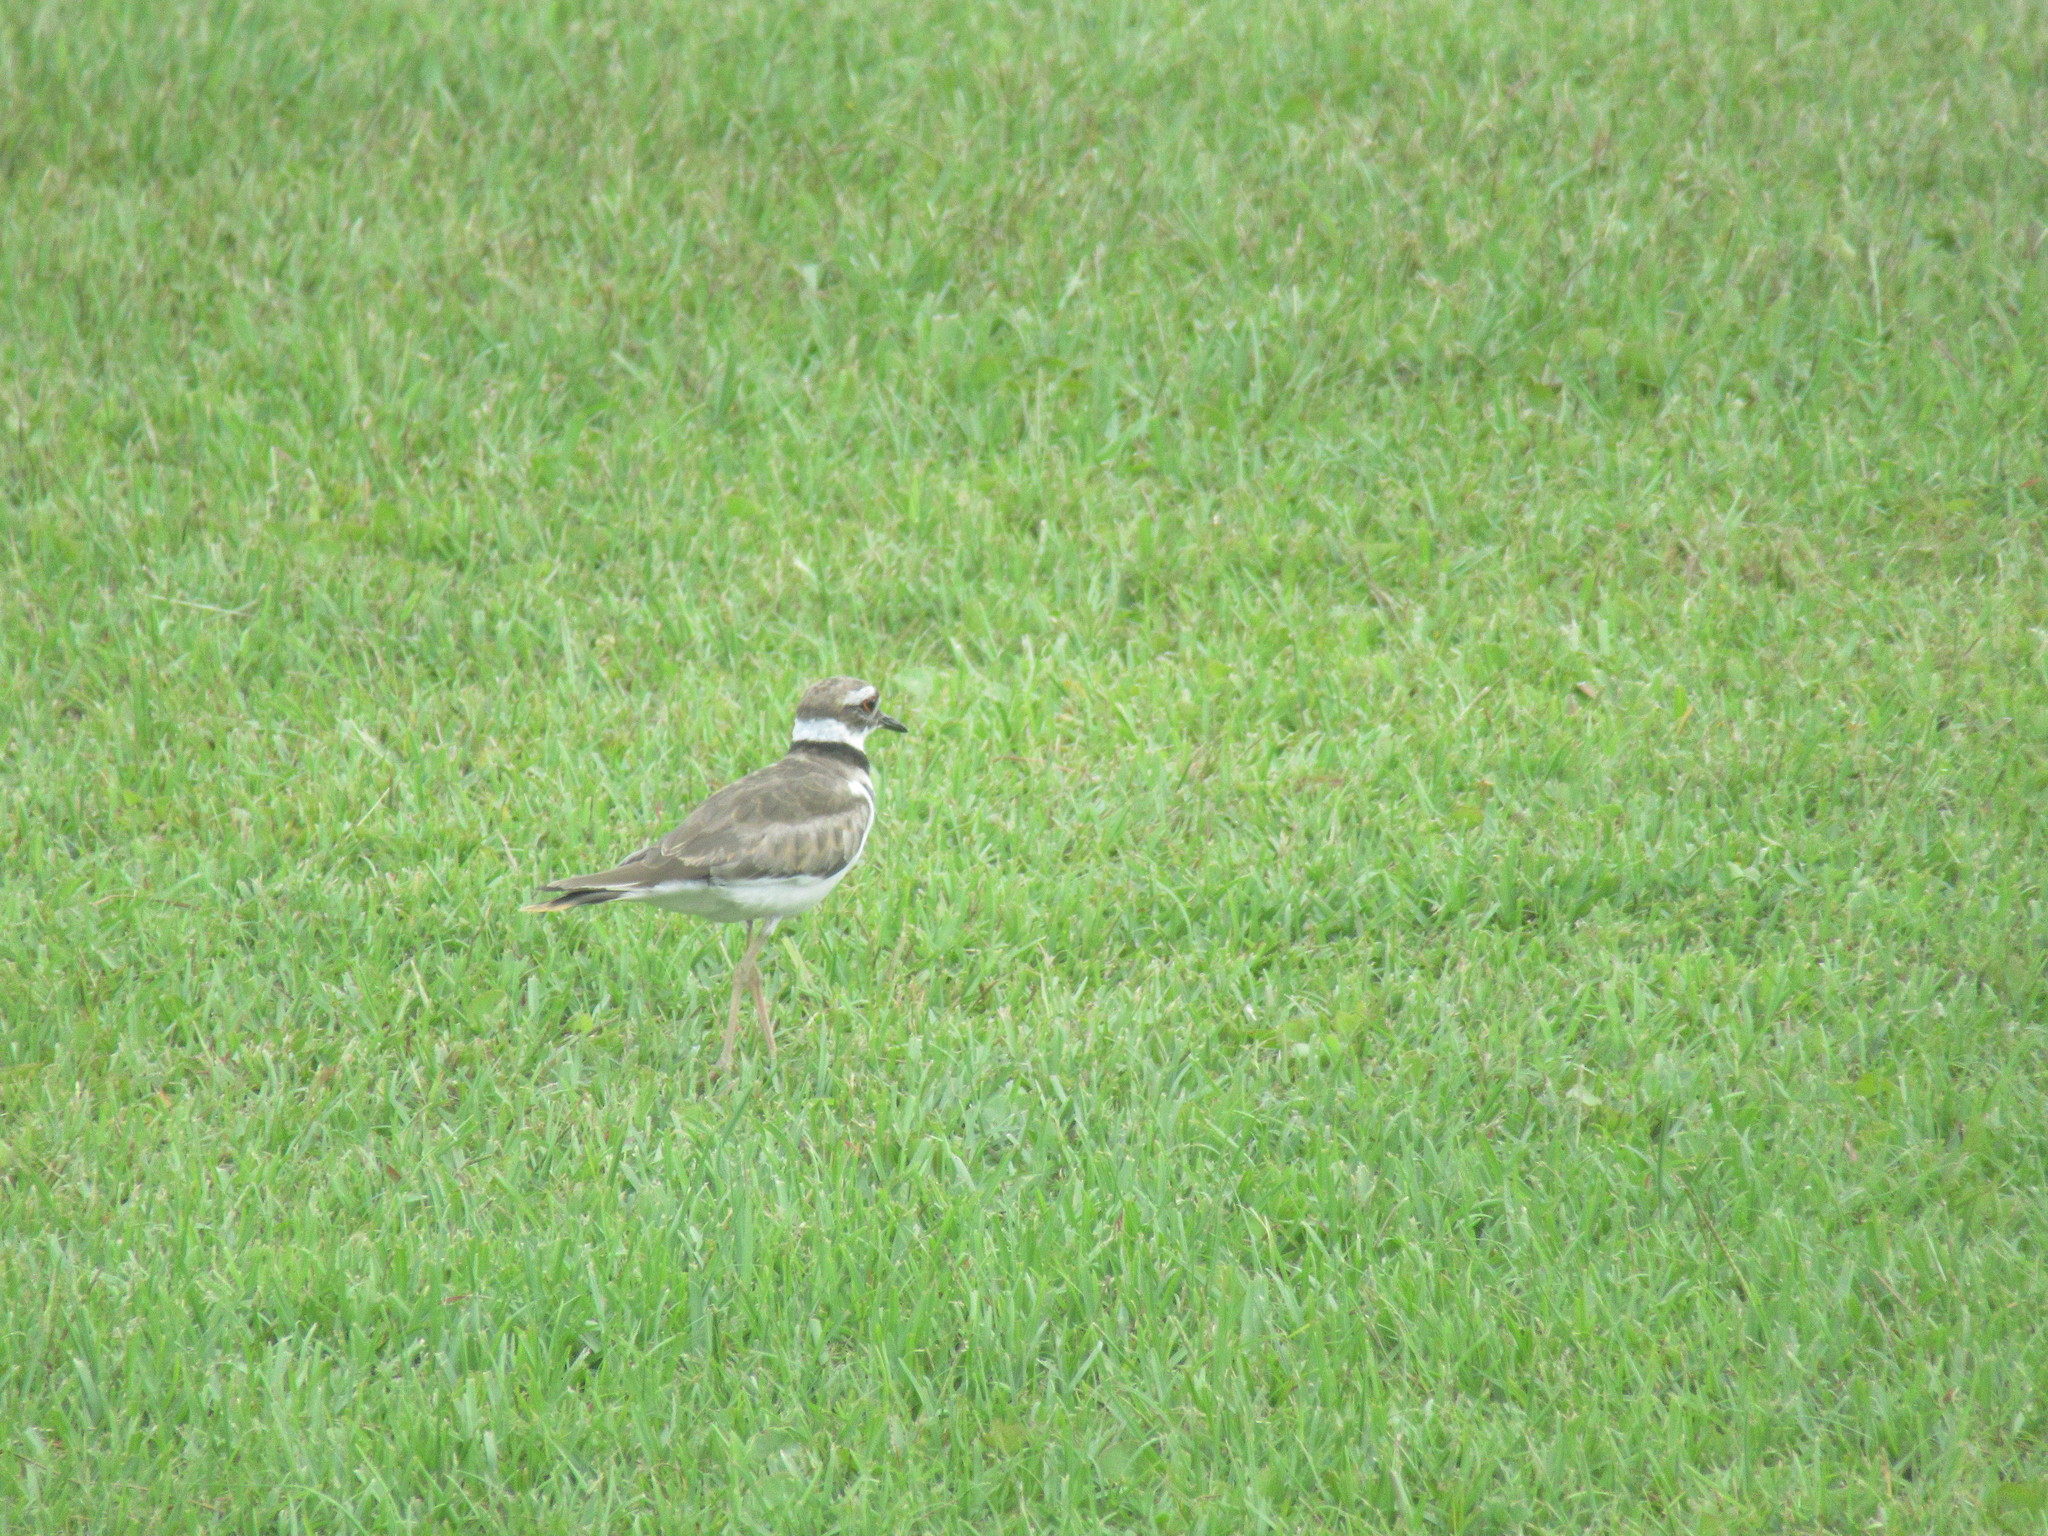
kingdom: Animalia
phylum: Chordata
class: Aves
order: Charadriiformes
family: Charadriidae
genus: Charadrius
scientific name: Charadrius vociferus
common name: Killdeer
